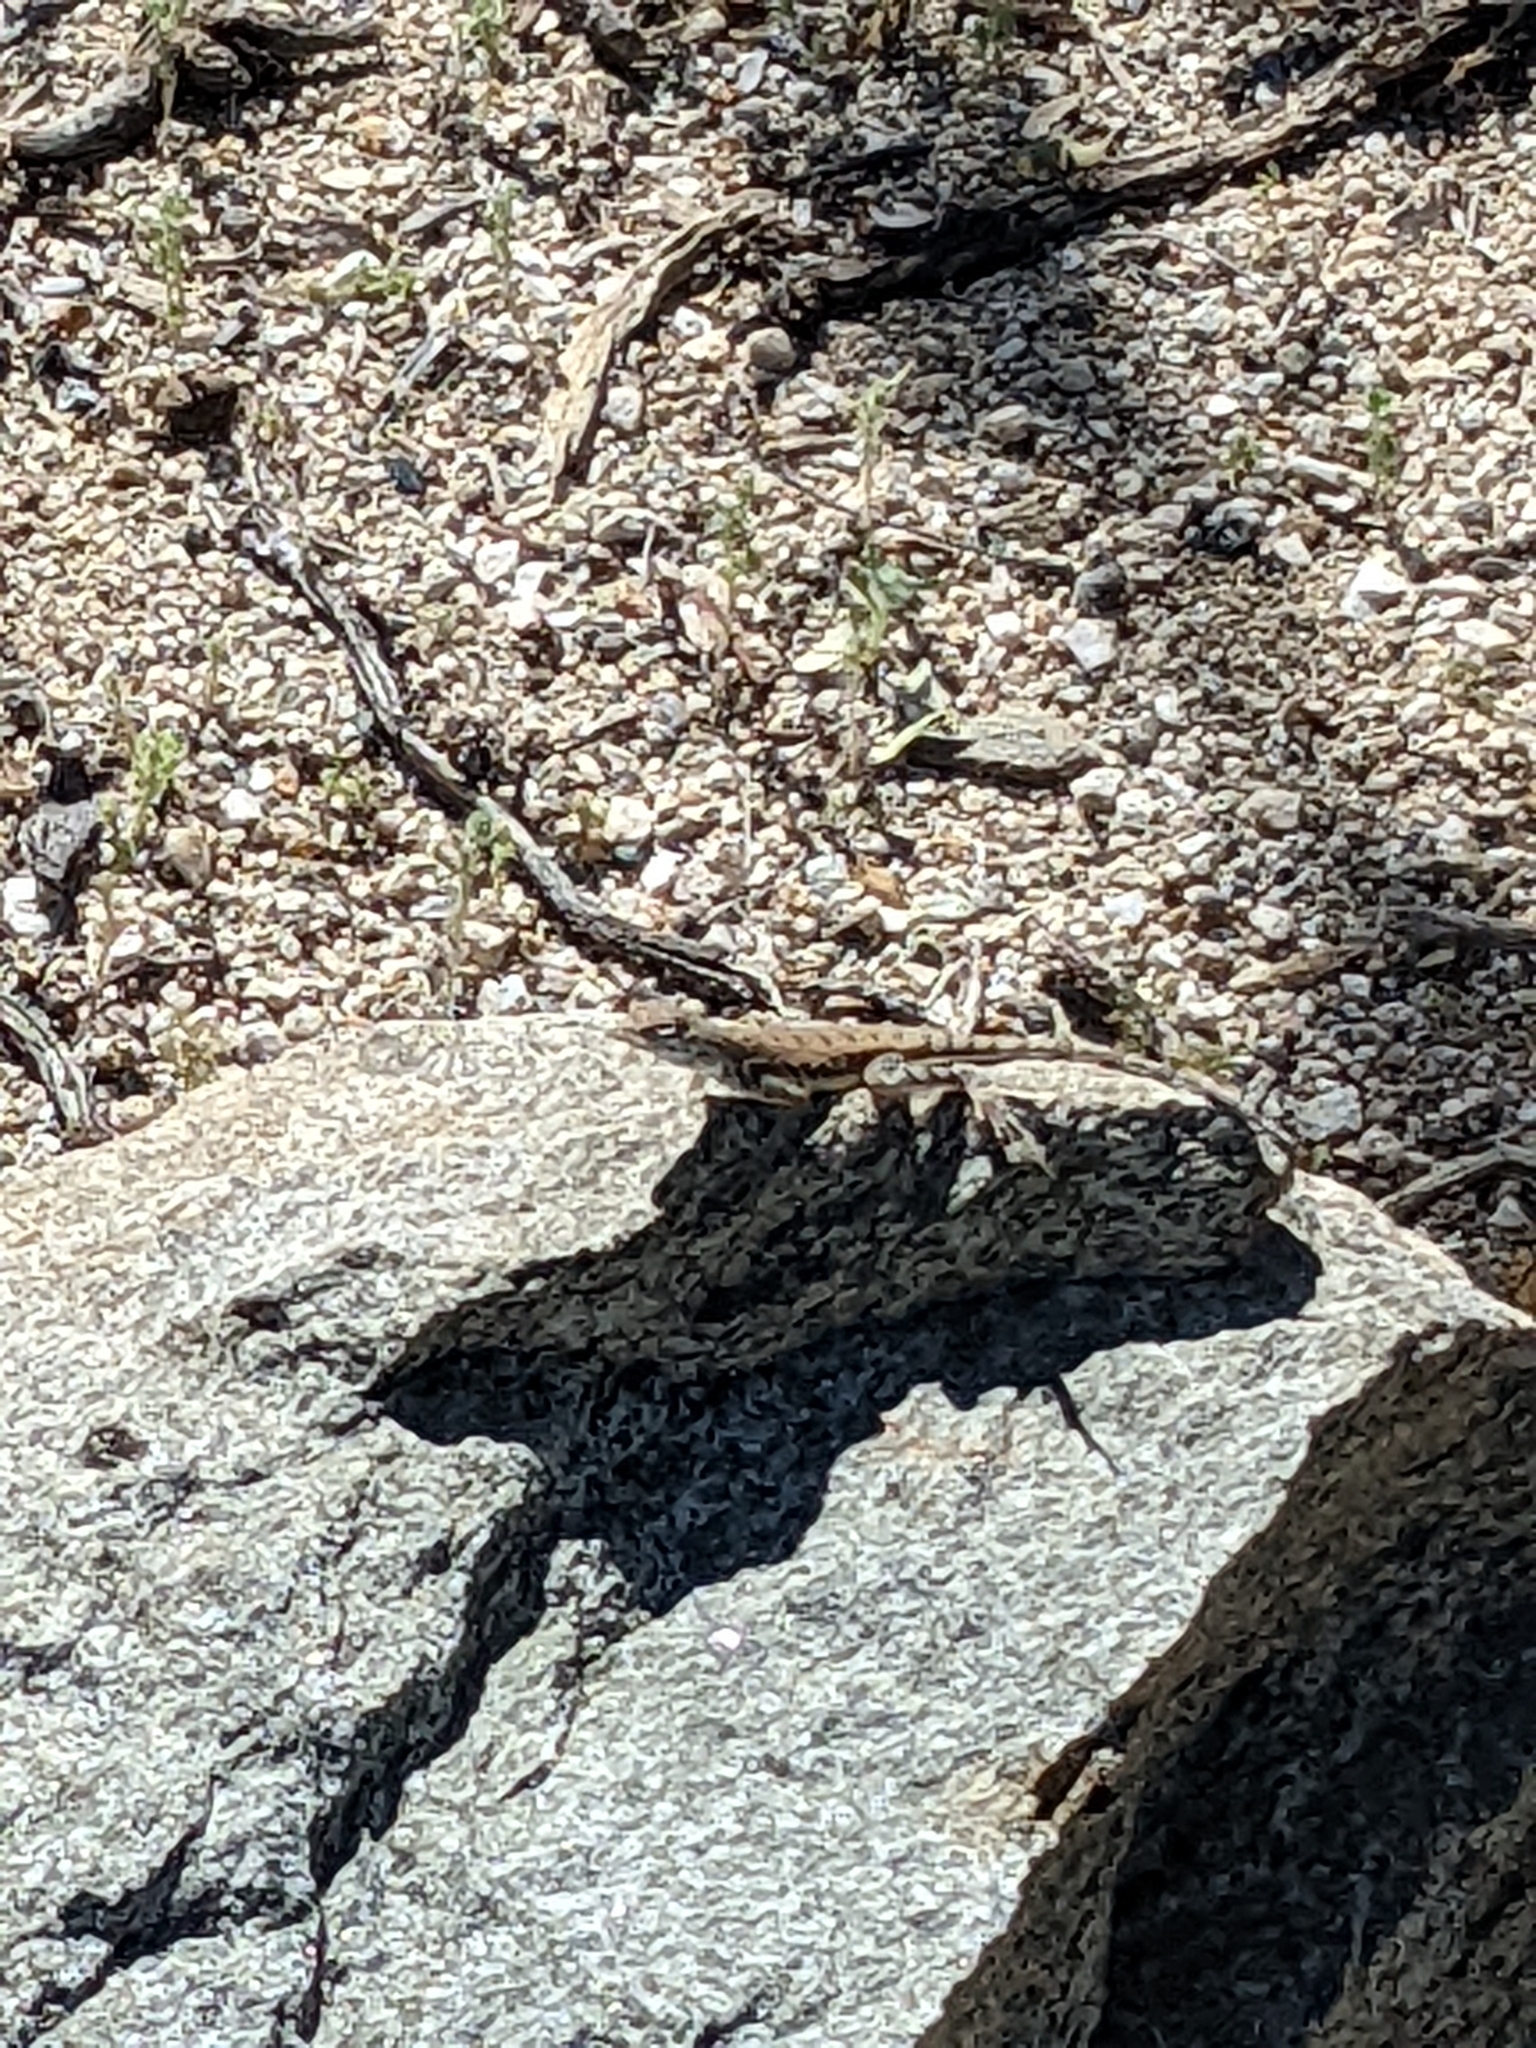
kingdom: Animalia
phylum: Chordata
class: Squamata
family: Phrynosomatidae
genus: Callisaurus
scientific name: Callisaurus draconoides
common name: Zebra-tailed lizard
